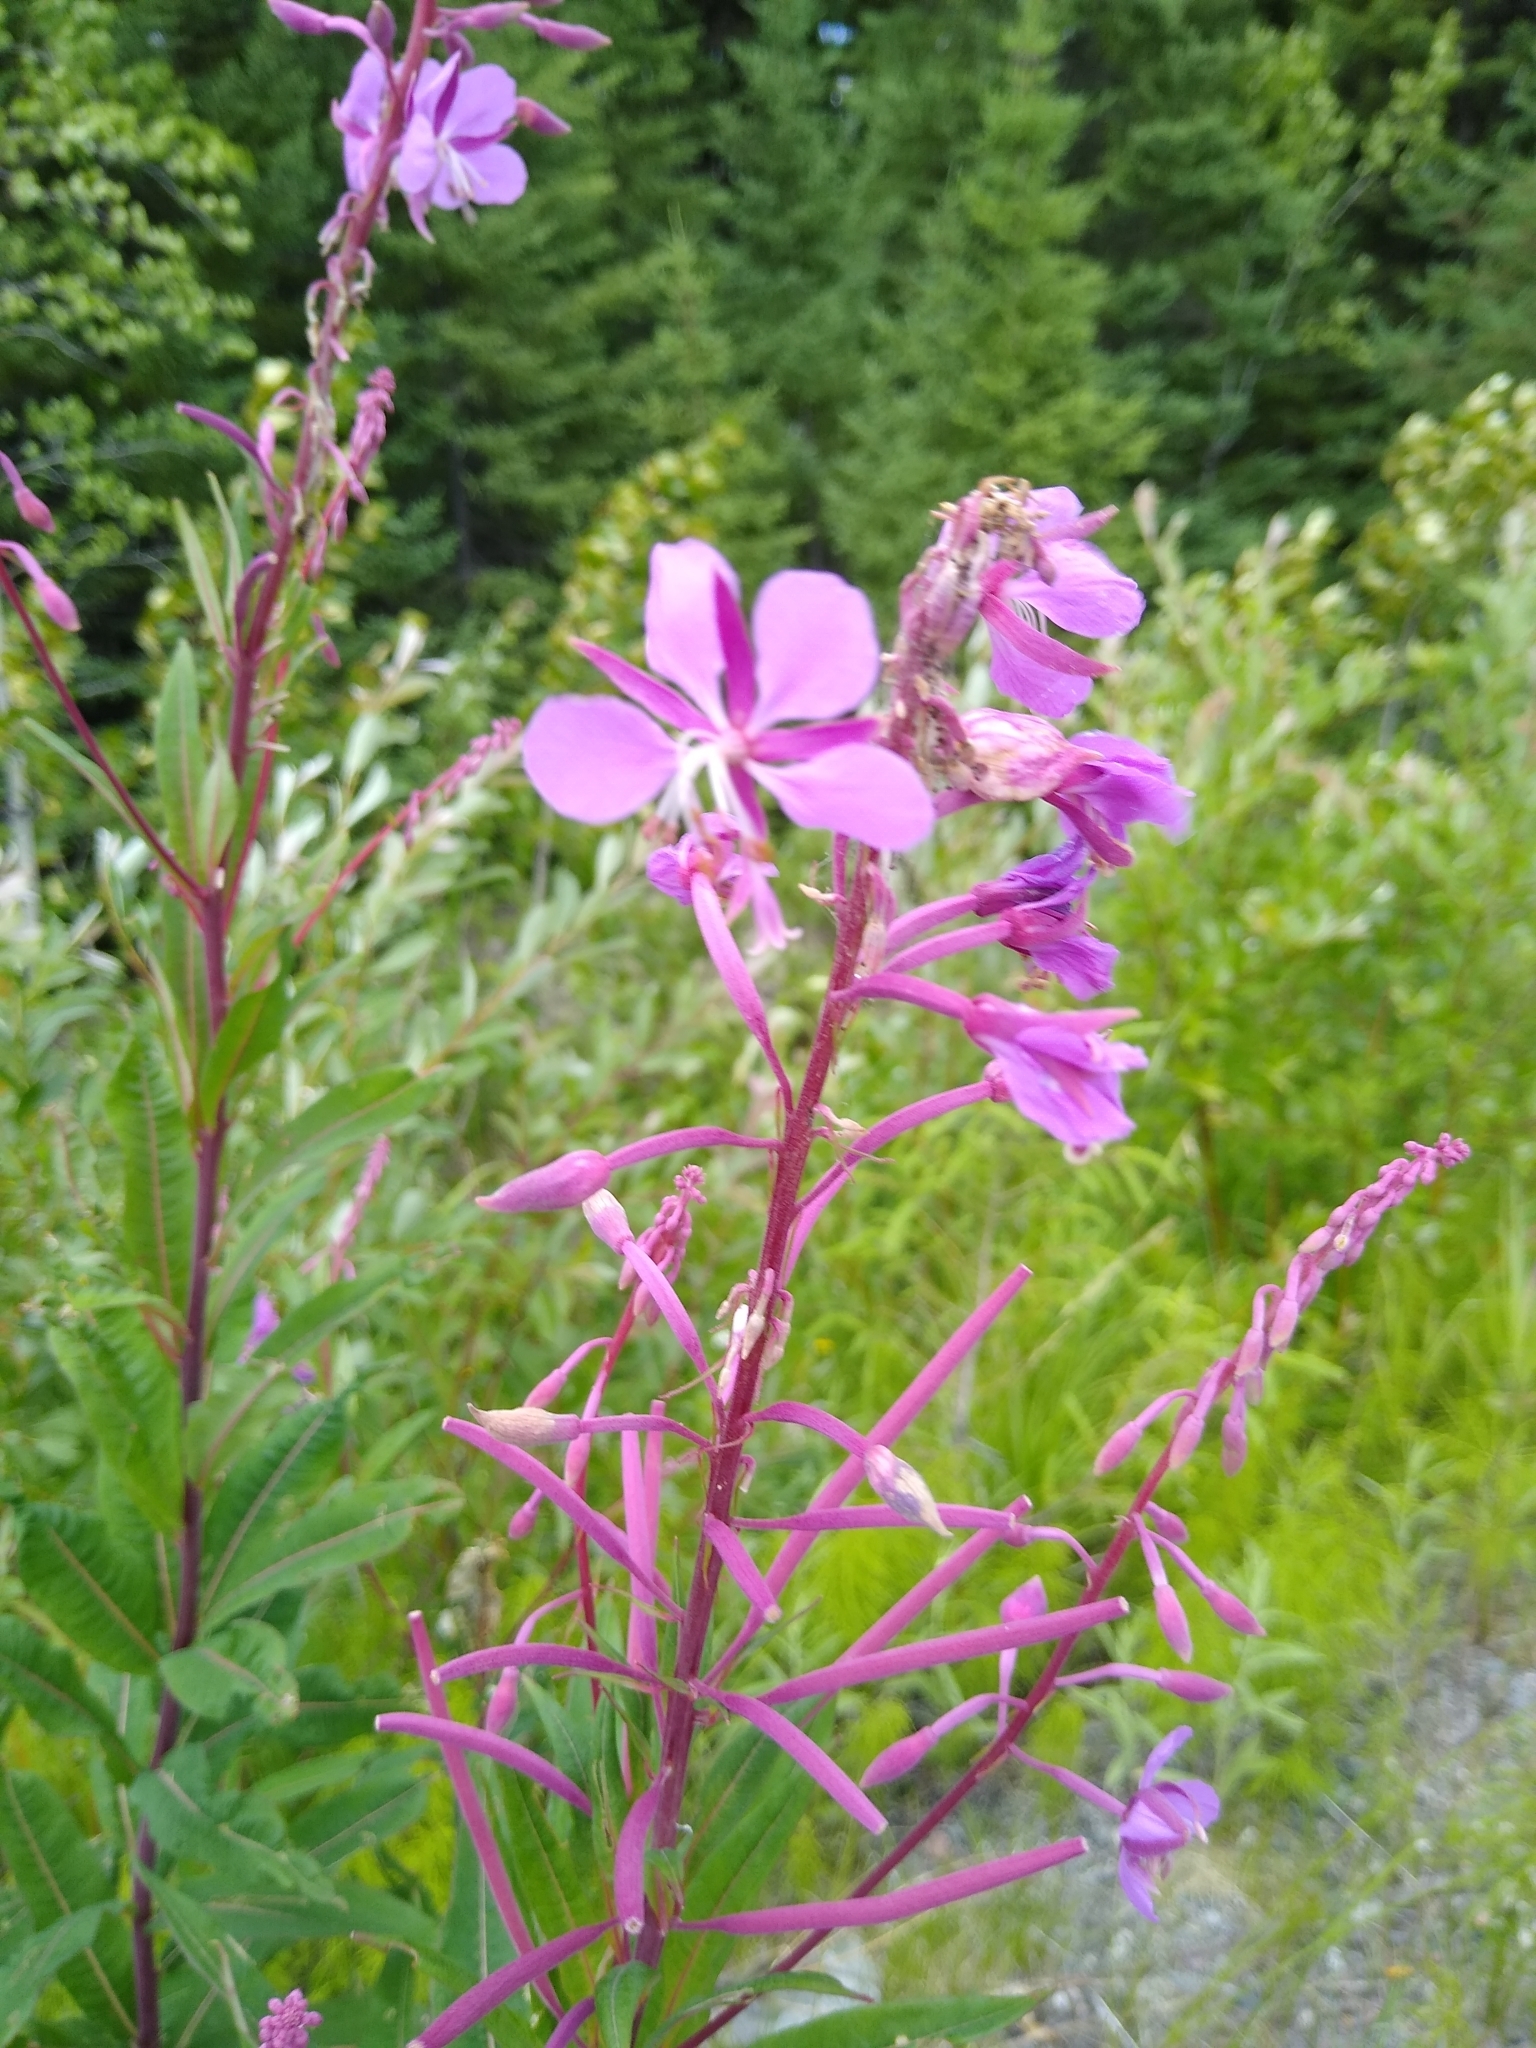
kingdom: Plantae
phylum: Tracheophyta
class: Magnoliopsida
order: Myrtales
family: Onagraceae
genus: Chamaenerion
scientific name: Chamaenerion angustifolium
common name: Fireweed
